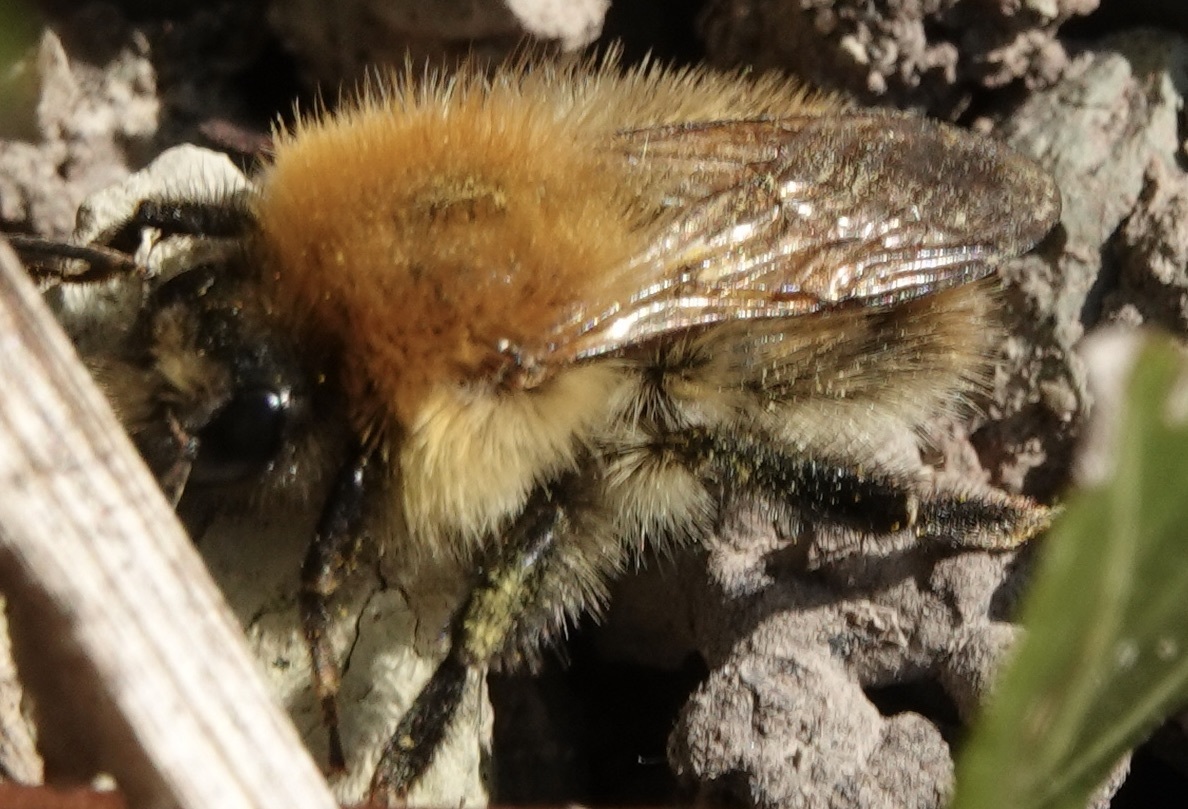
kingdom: Animalia
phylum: Arthropoda
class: Insecta
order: Hymenoptera
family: Apidae
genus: Bombus
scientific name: Bombus pascuorum
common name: Common carder bee
